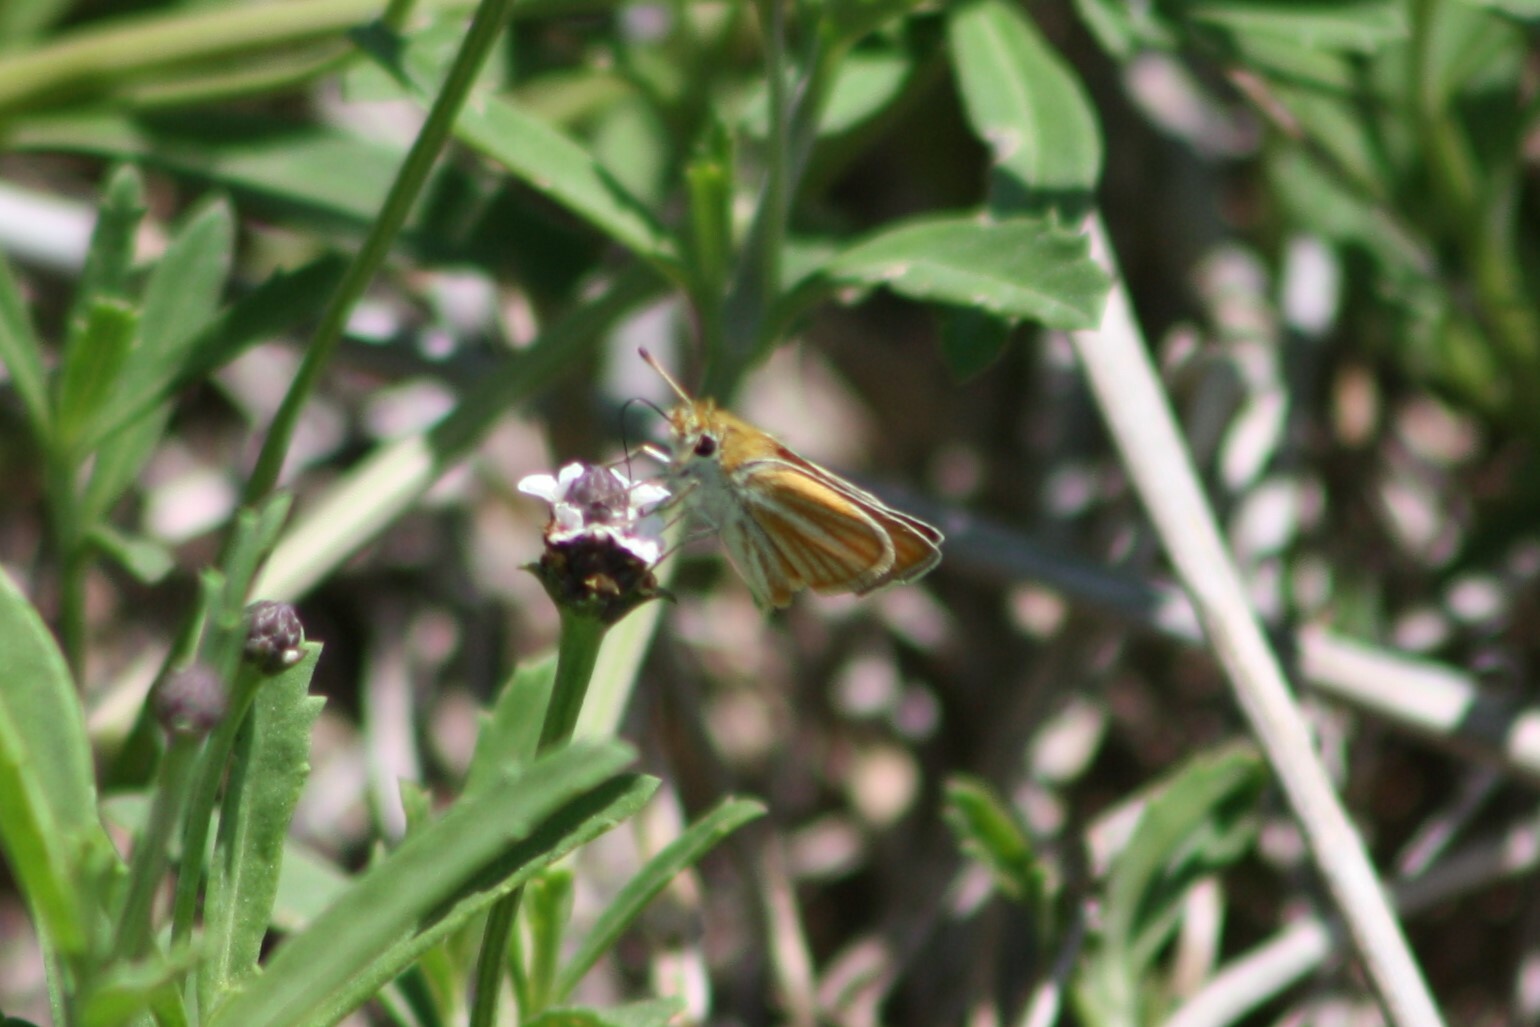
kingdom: Animalia
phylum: Arthropoda
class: Insecta
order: Lepidoptera
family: Hesperiidae
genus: Copaeodes
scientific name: Copaeodes minima
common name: Southern skipperling
